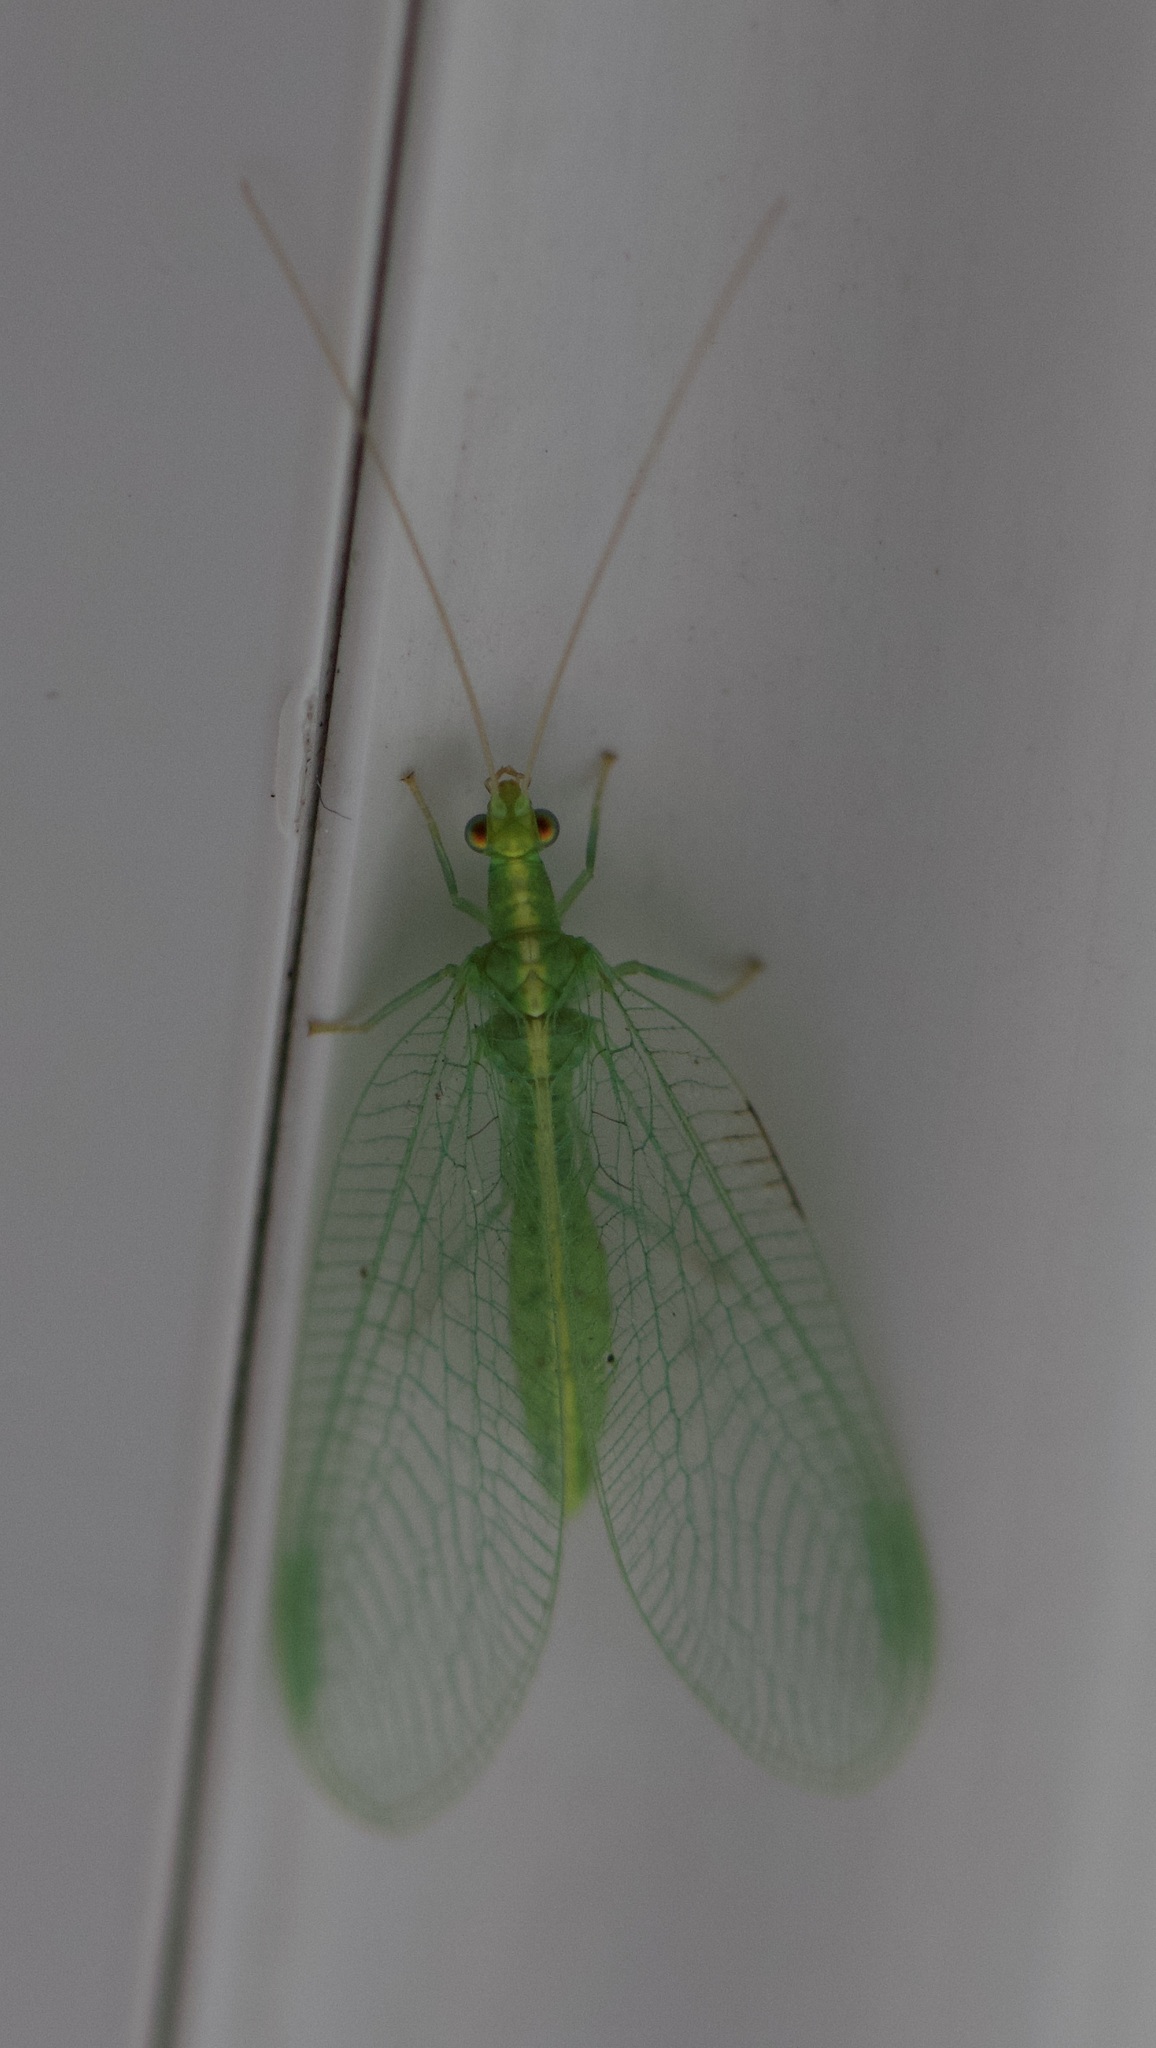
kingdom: Animalia
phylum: Arthropoda
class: Insecta
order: Neuroptera
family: Chrysopidae
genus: Chrysoperla
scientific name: Chrysoperla
